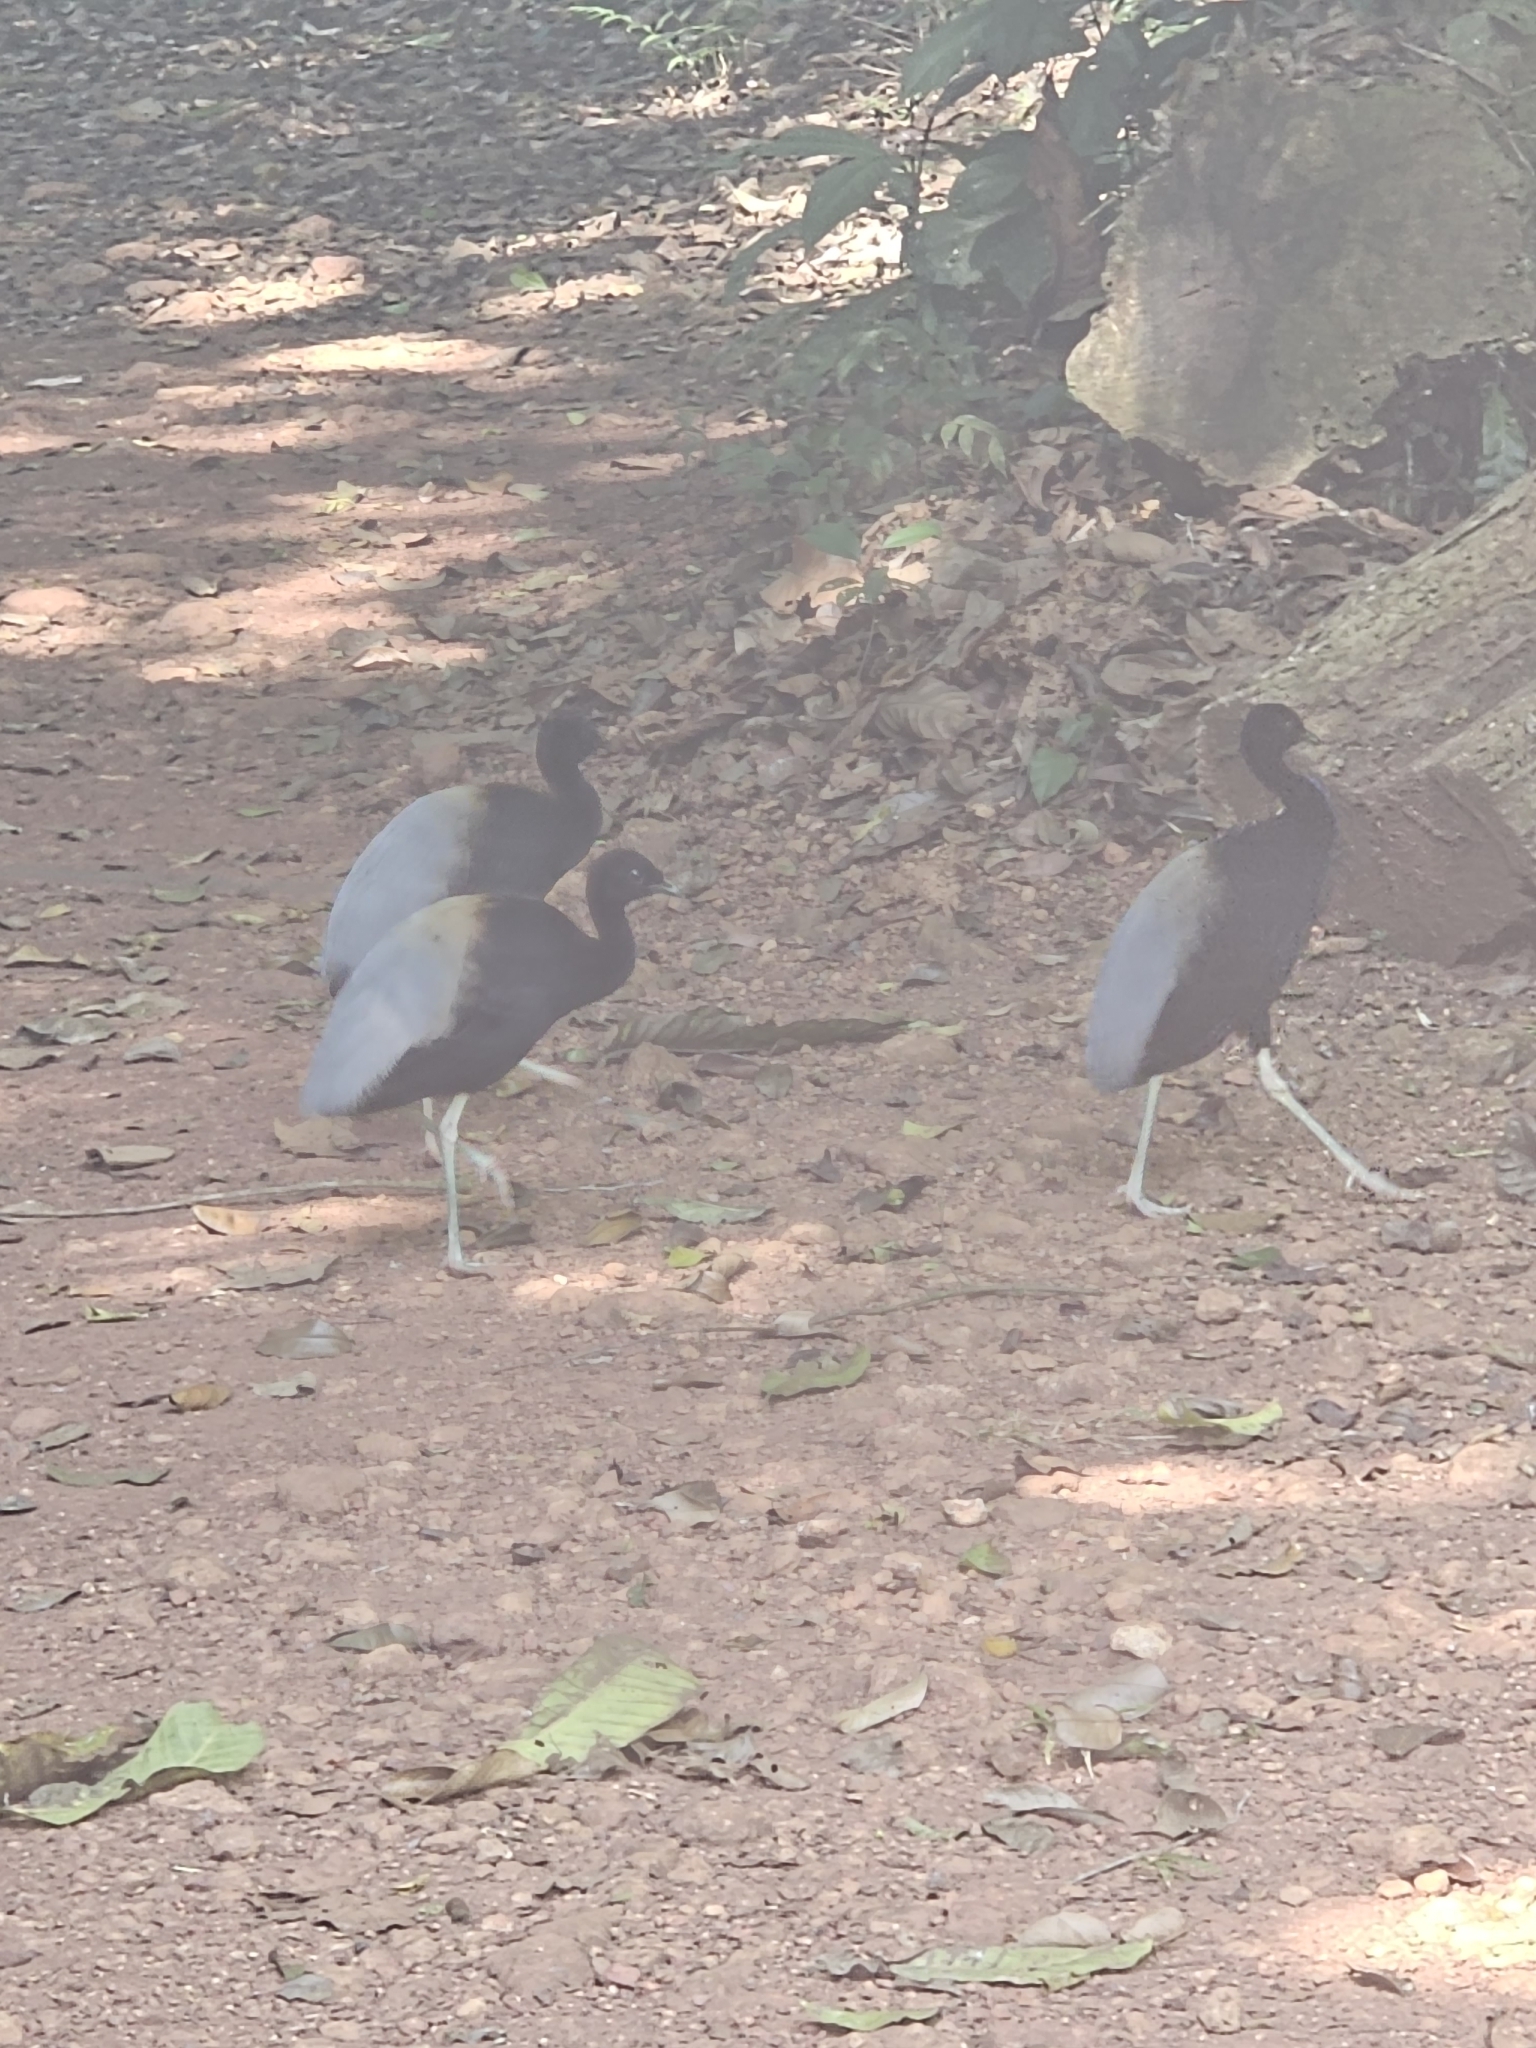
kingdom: Animalia
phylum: Chordata
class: Aves
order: Gruiformes
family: Psophiidae
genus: Psophia
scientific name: Psophia crepitans
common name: Grey-winged trumpeter
